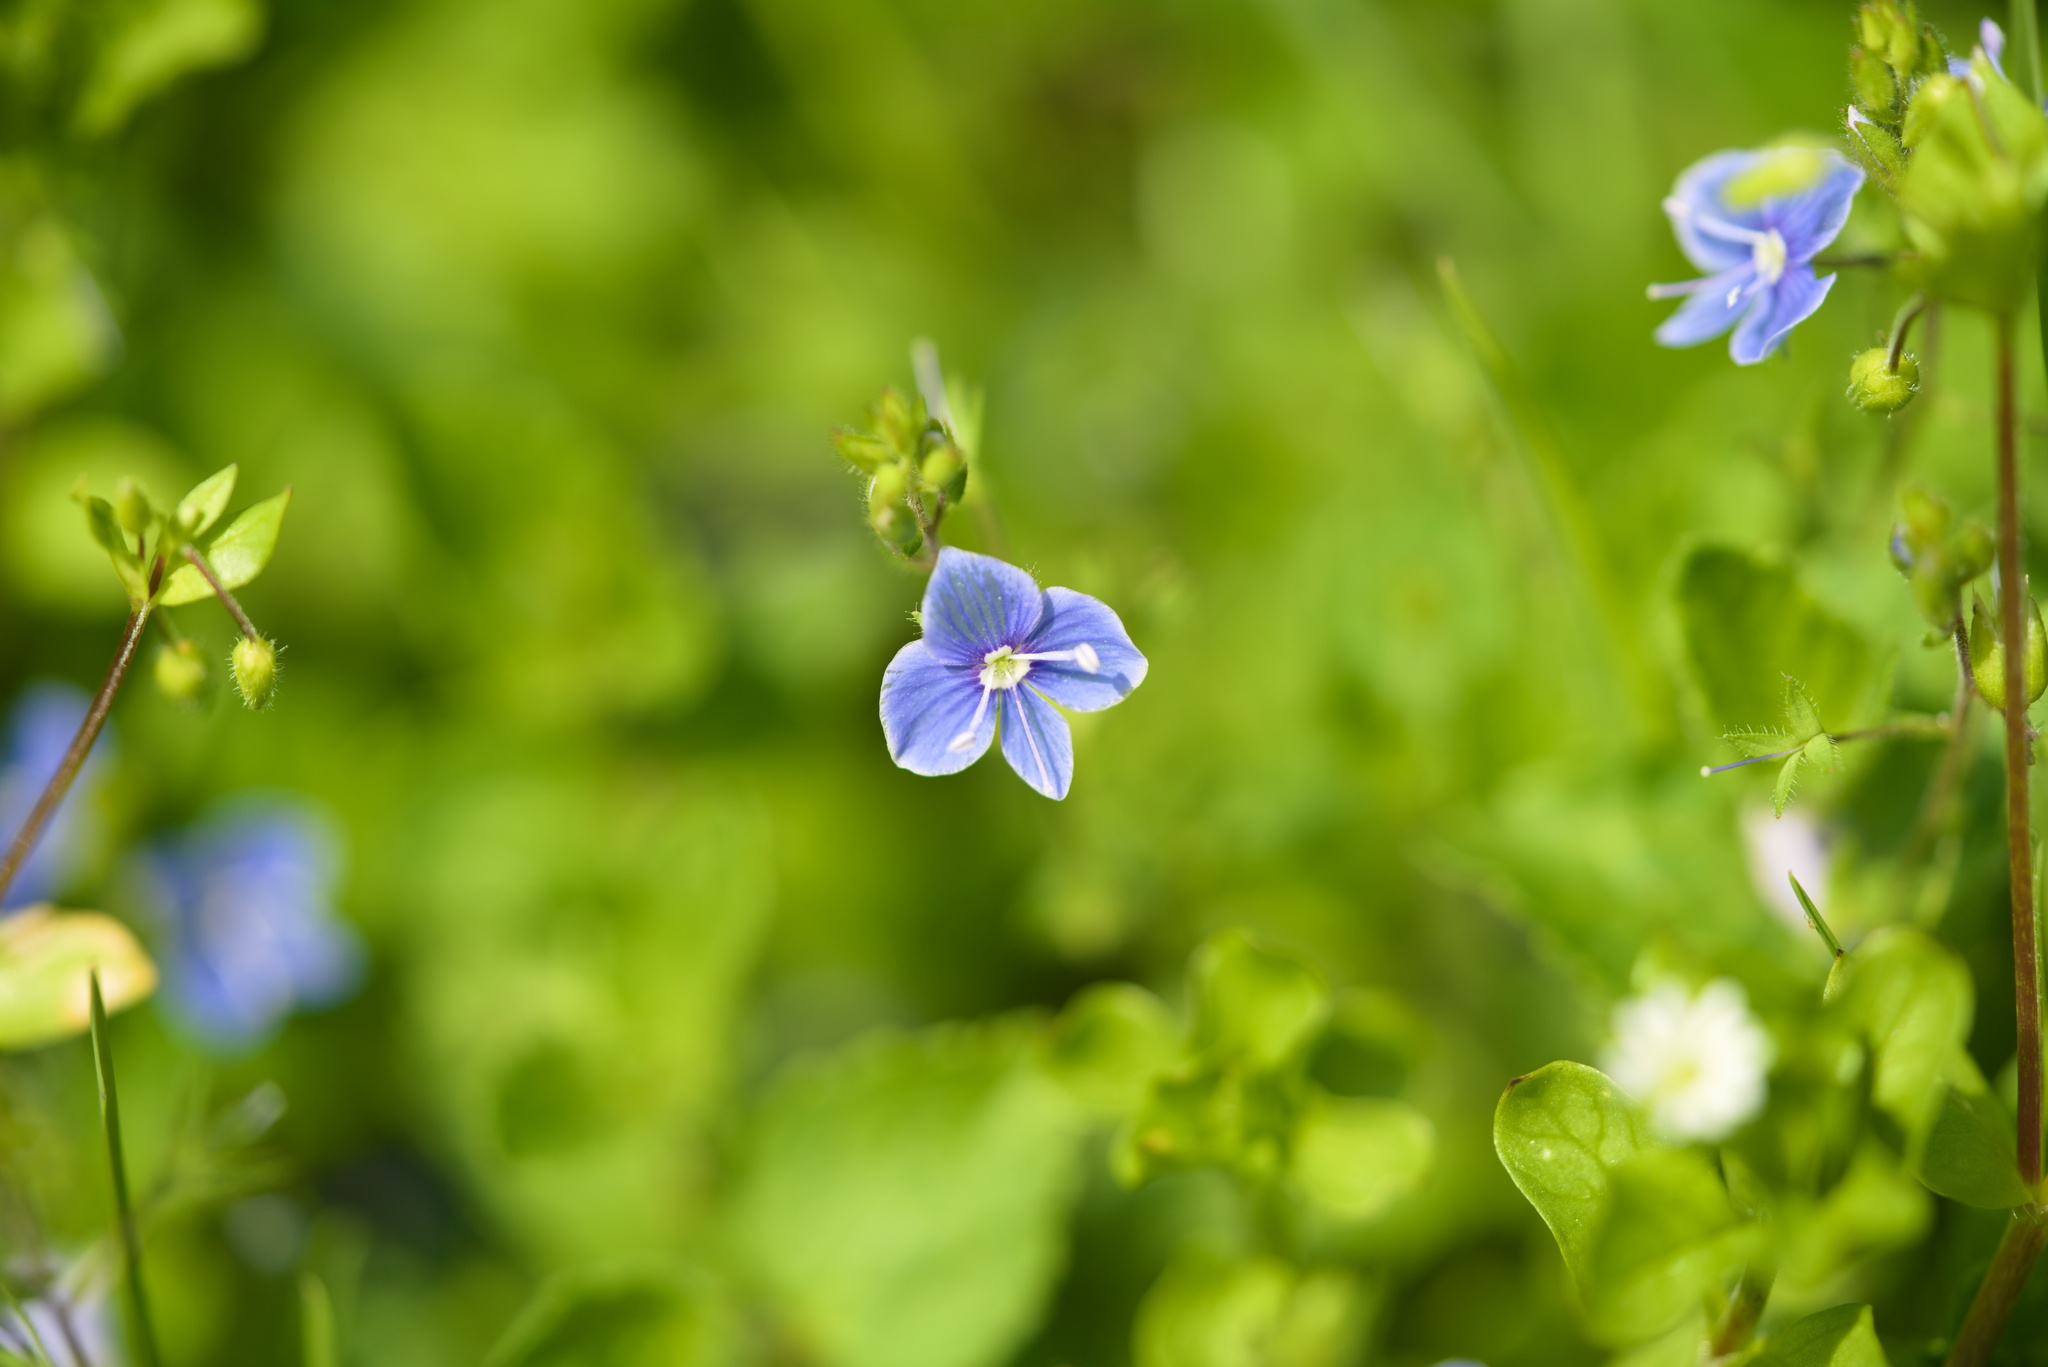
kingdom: Plantae
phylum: Tracheophyta
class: Magnoliopsida
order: Lamiales
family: Plantaginaceae
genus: Veronica
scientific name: Veronica chamaedrys
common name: Germander speedwell
